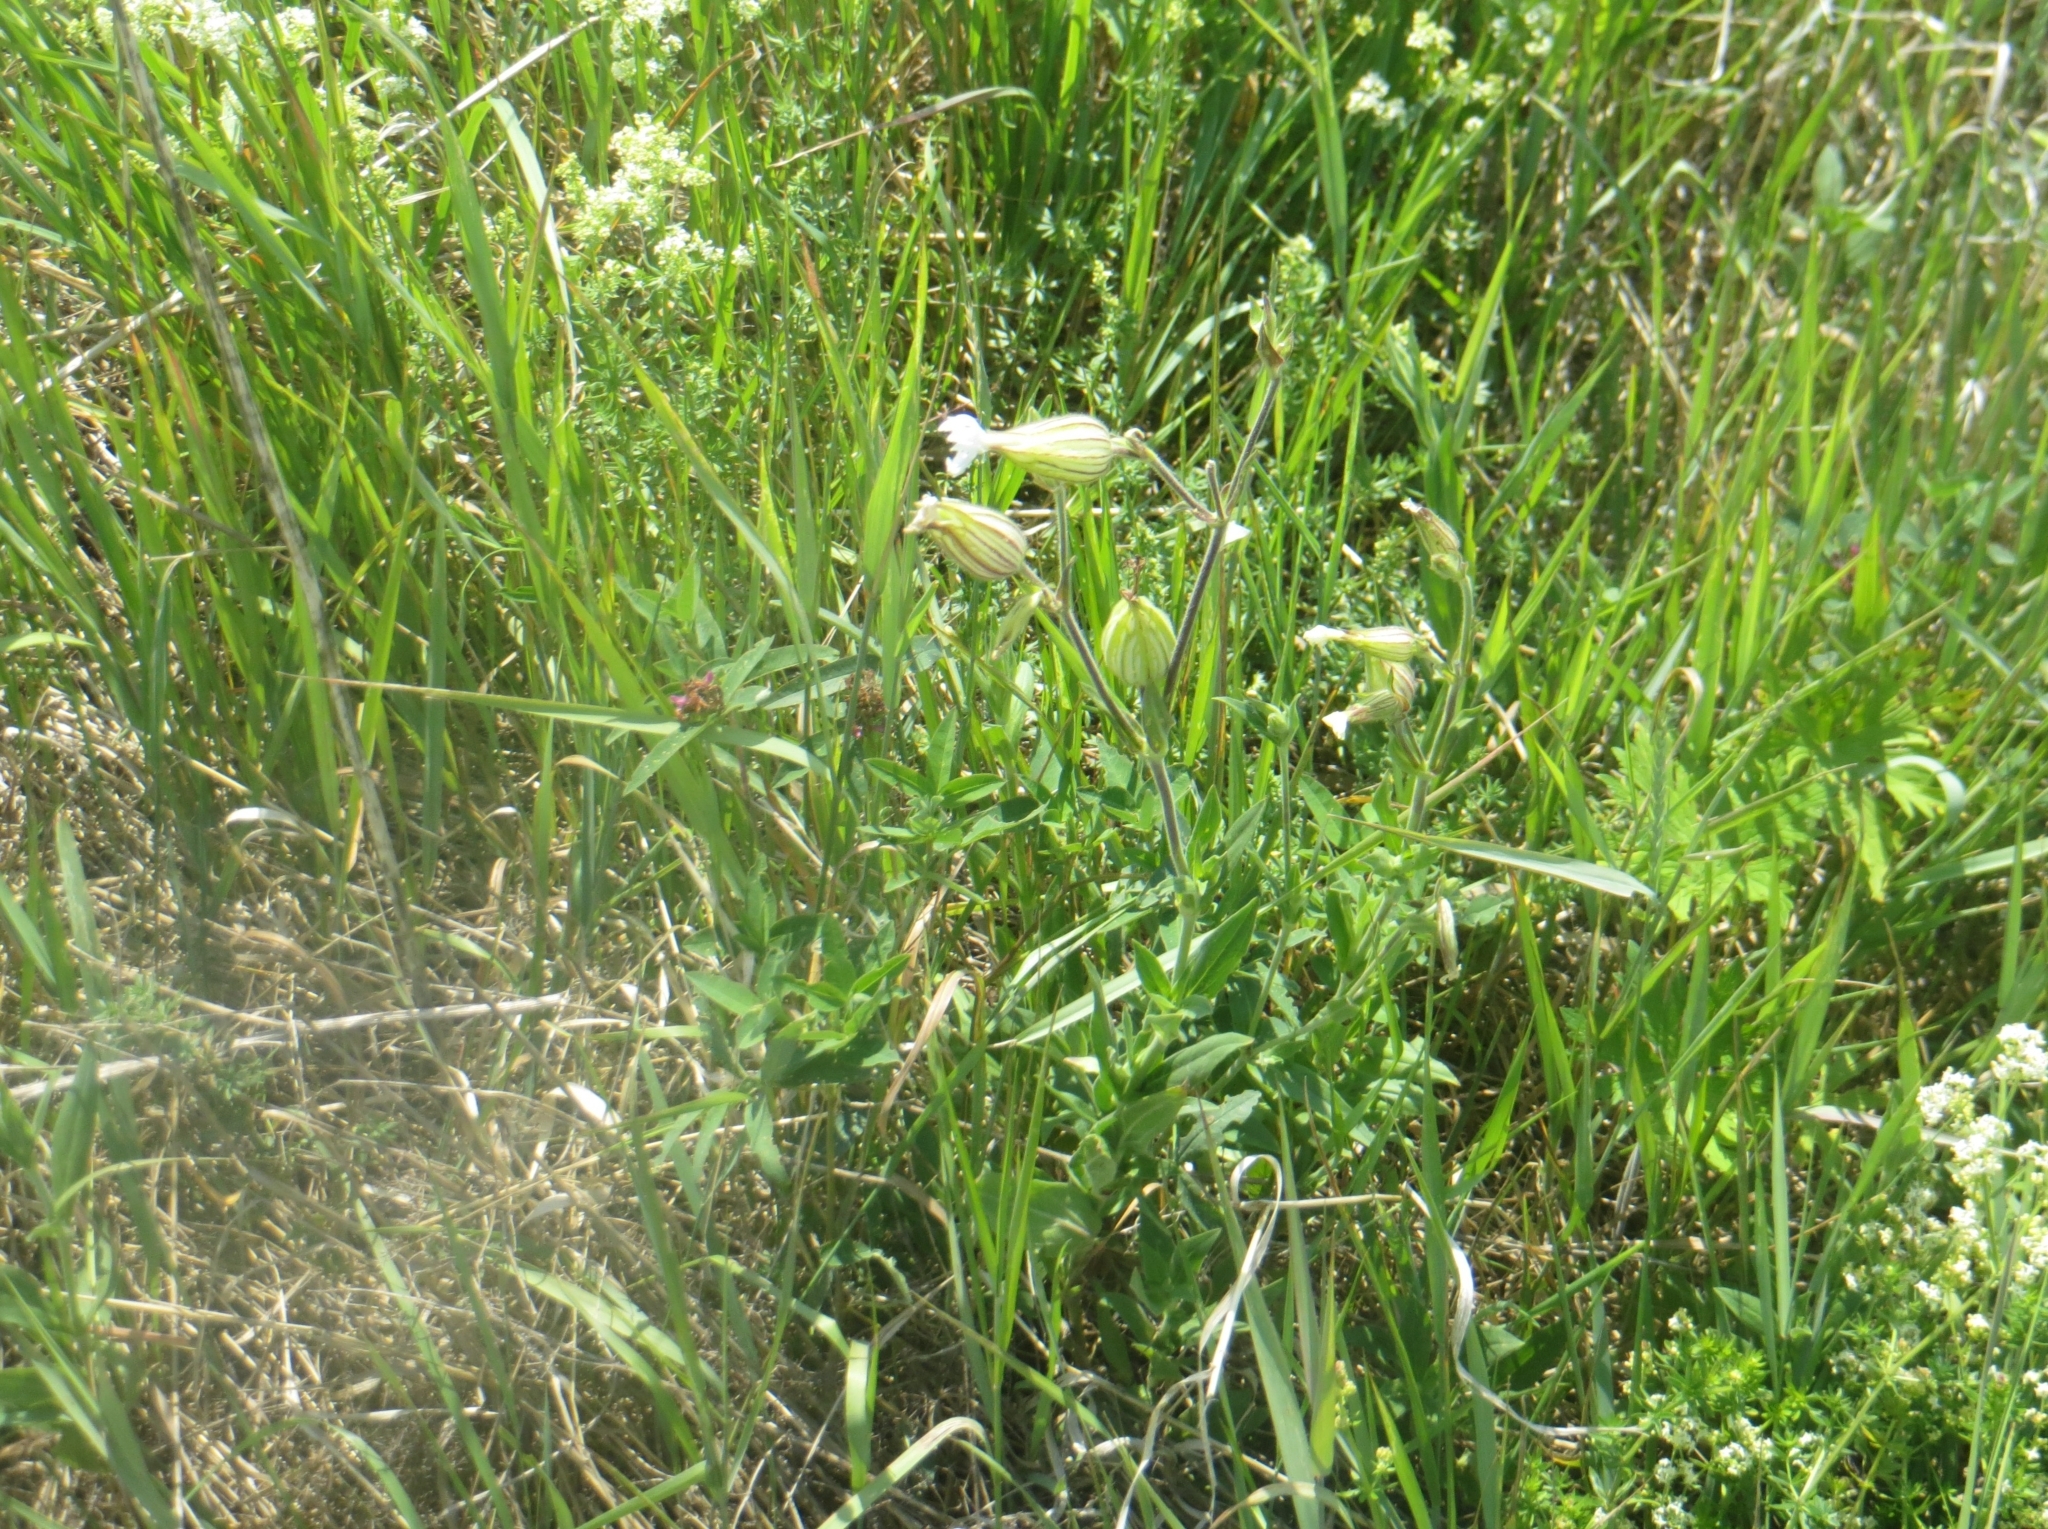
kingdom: Plantae
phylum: Tracheophyta
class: Magnoliopsida
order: Caryophyllales
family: Caryophyllaceae
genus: Silene
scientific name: Silene latifolia
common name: White campion
